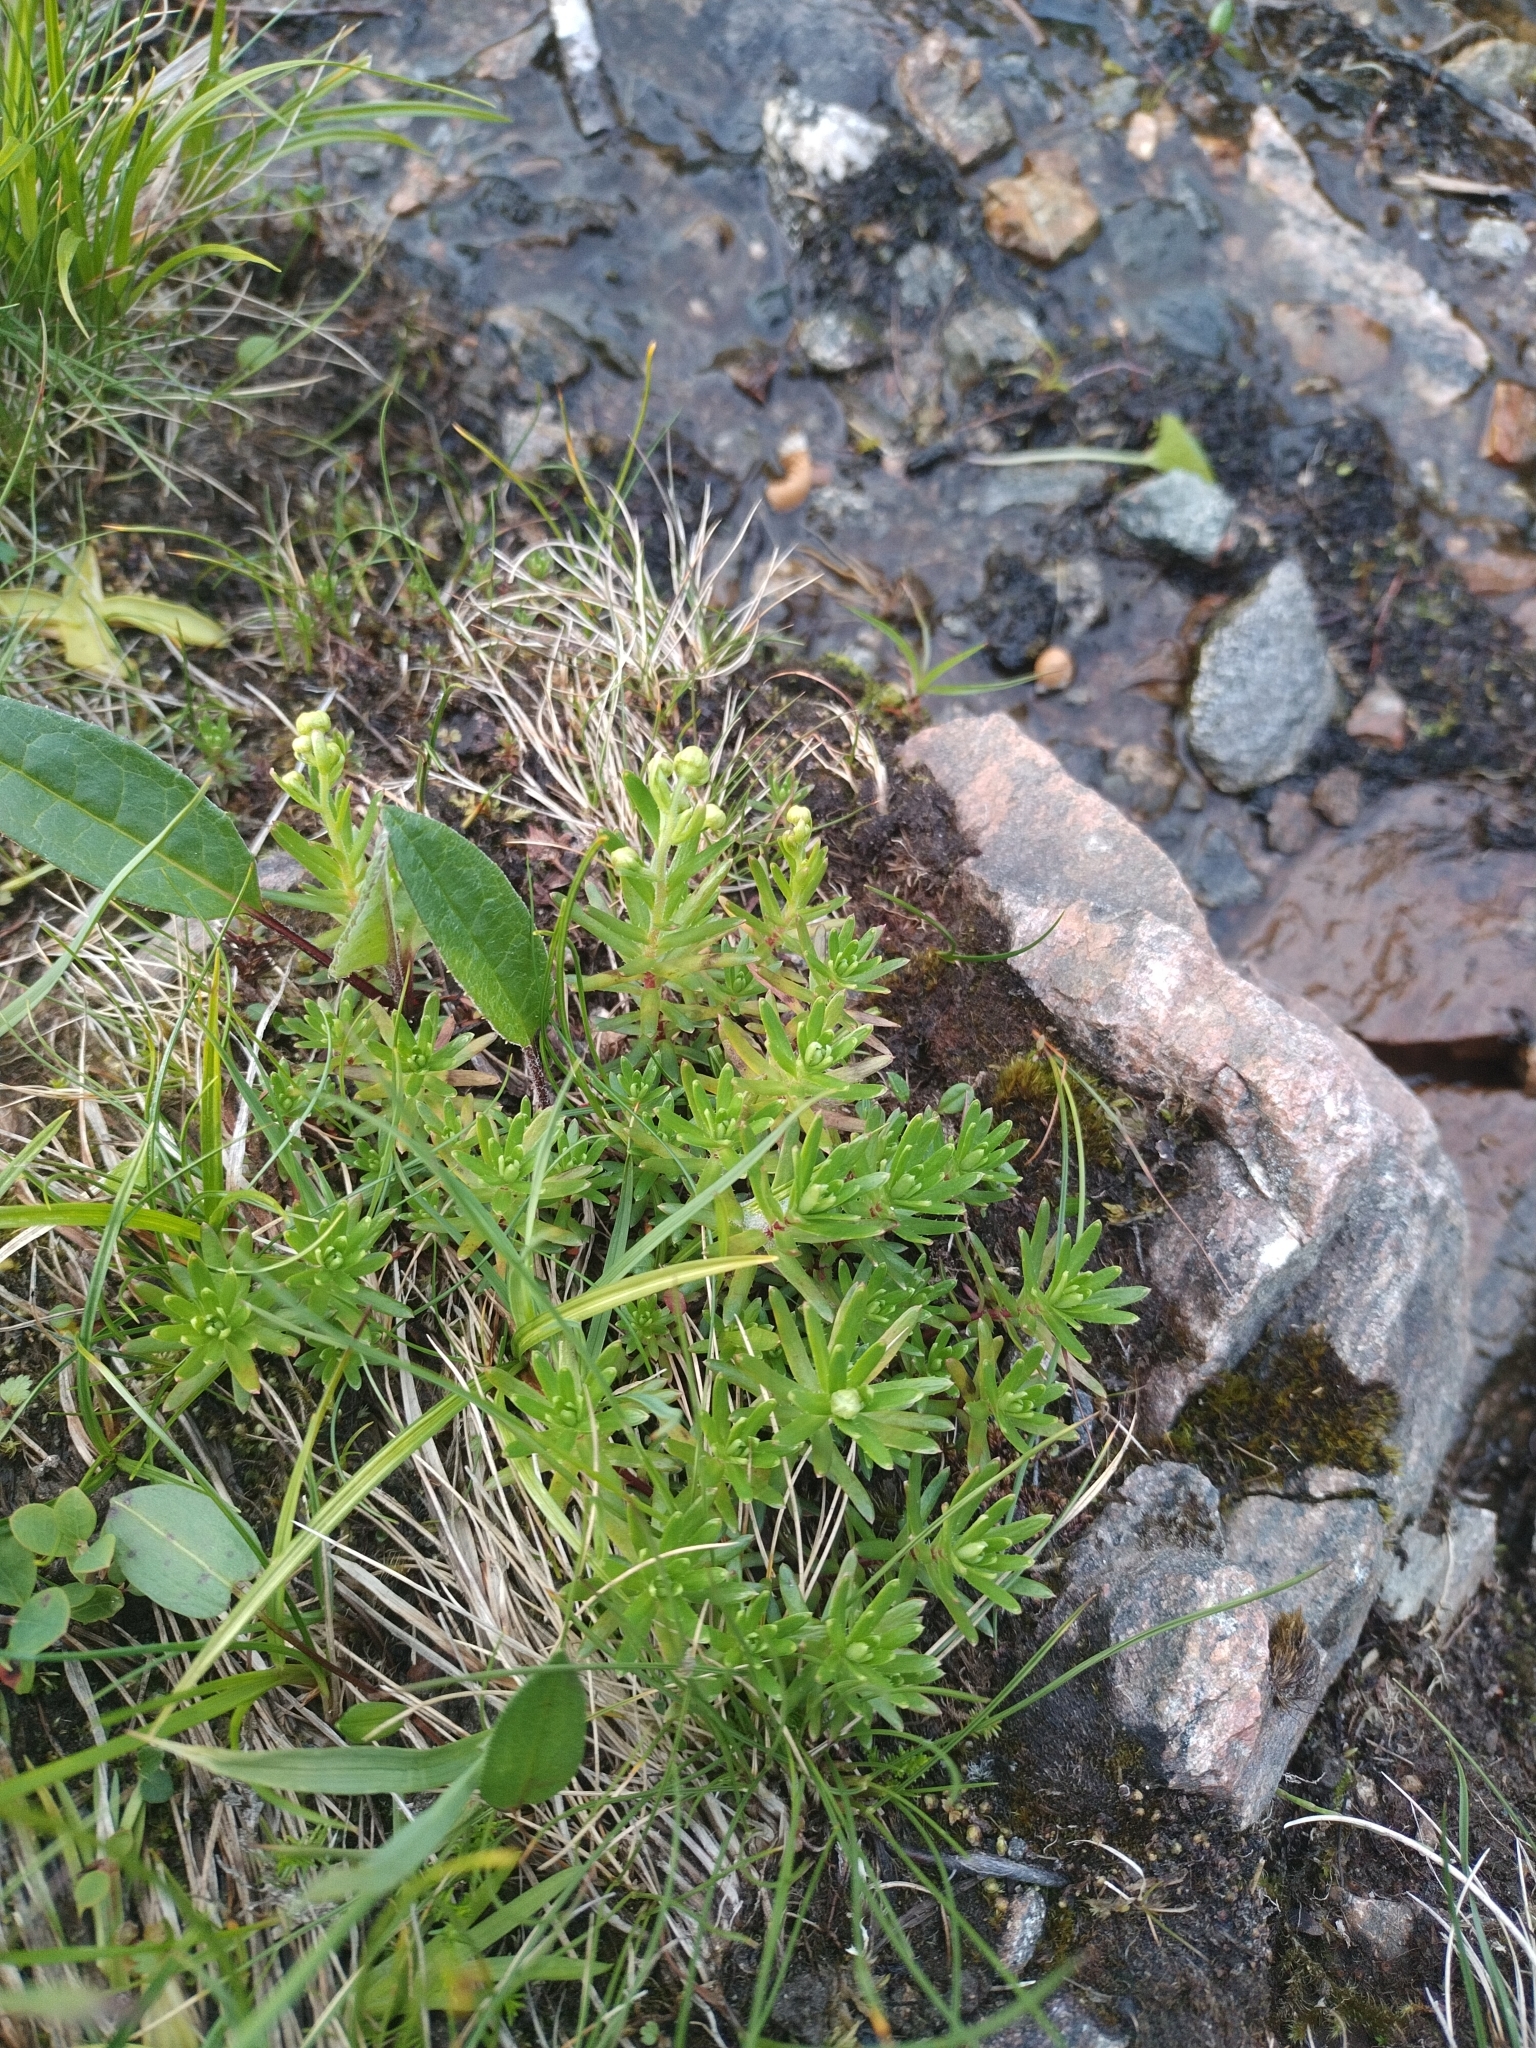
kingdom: Plantae
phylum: Tracheophyta
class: Magnoliopsida
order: Saxifragales
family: Saxifragaceae
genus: Saxifraga
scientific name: Saxifraga aizoides
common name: Yellow mountain saxifrage
